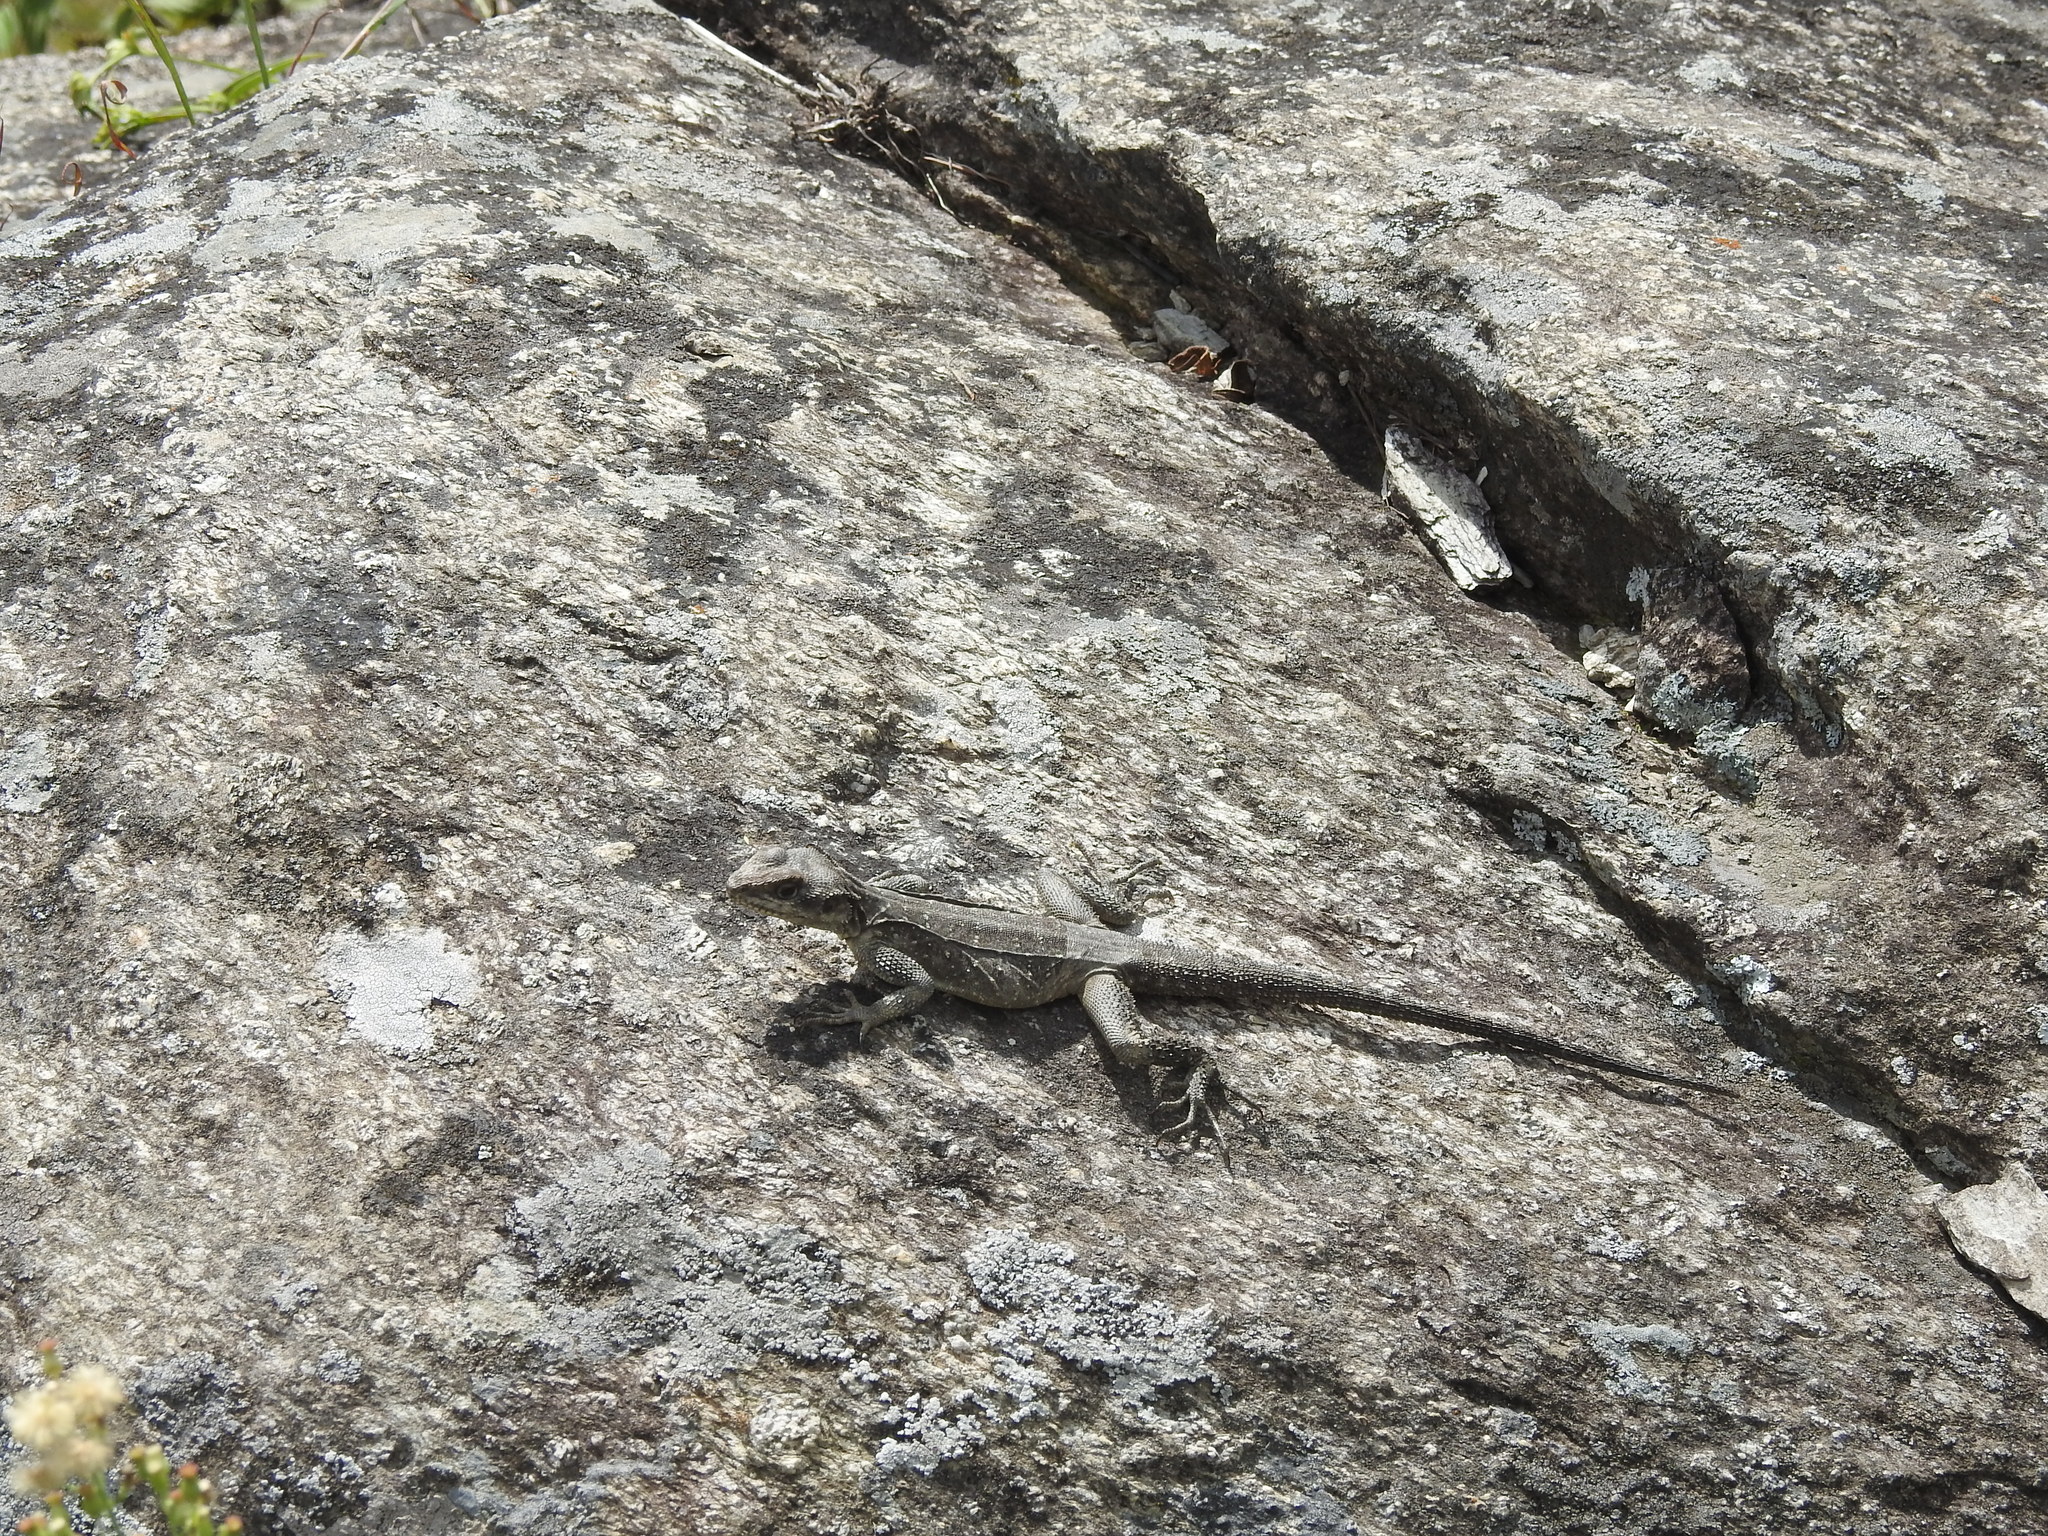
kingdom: Animalia
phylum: Chordata
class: Squamata
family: Agamidae
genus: Laudakia
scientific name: Laudakia tuberculata
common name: Kashmir rock agama
